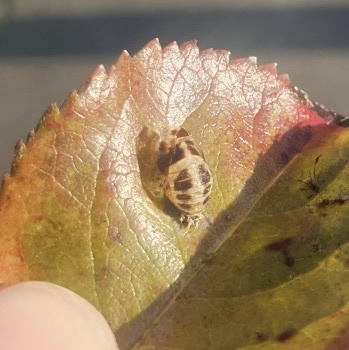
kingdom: Animalia
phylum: Arthropoda
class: Insecta
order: Coleoptera
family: Coccinellidae
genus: Harmonia
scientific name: Harmonia axyridis
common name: Harlequin ladybird
